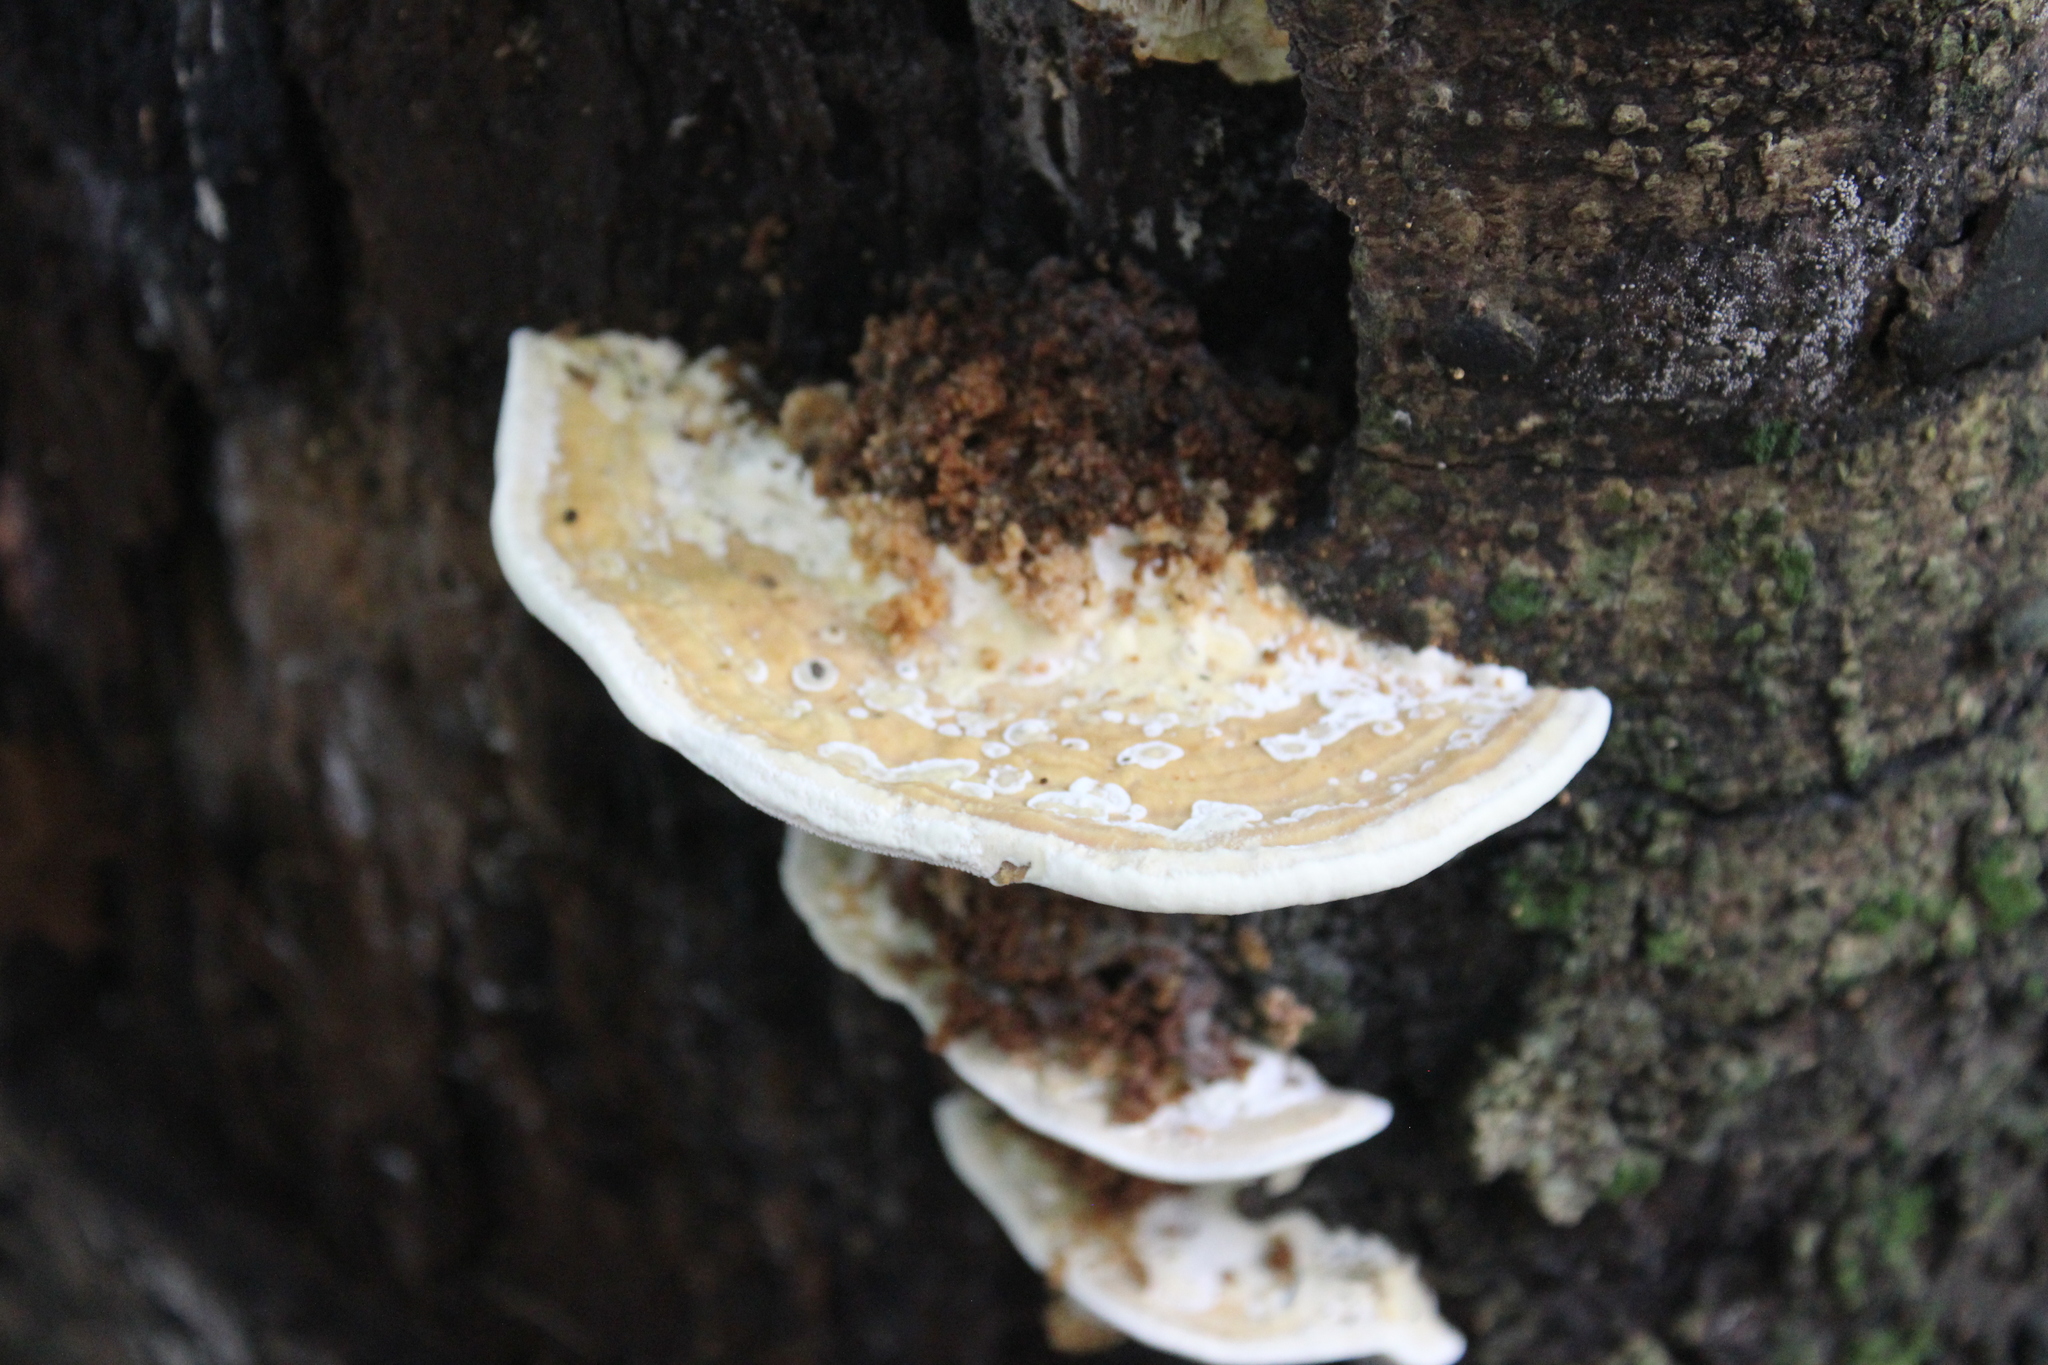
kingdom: Fungi
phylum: Basidiomycota
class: Agaricomycetes
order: Polyporales
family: Polyporaceae
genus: Trametes
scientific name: Trametes cubensis
